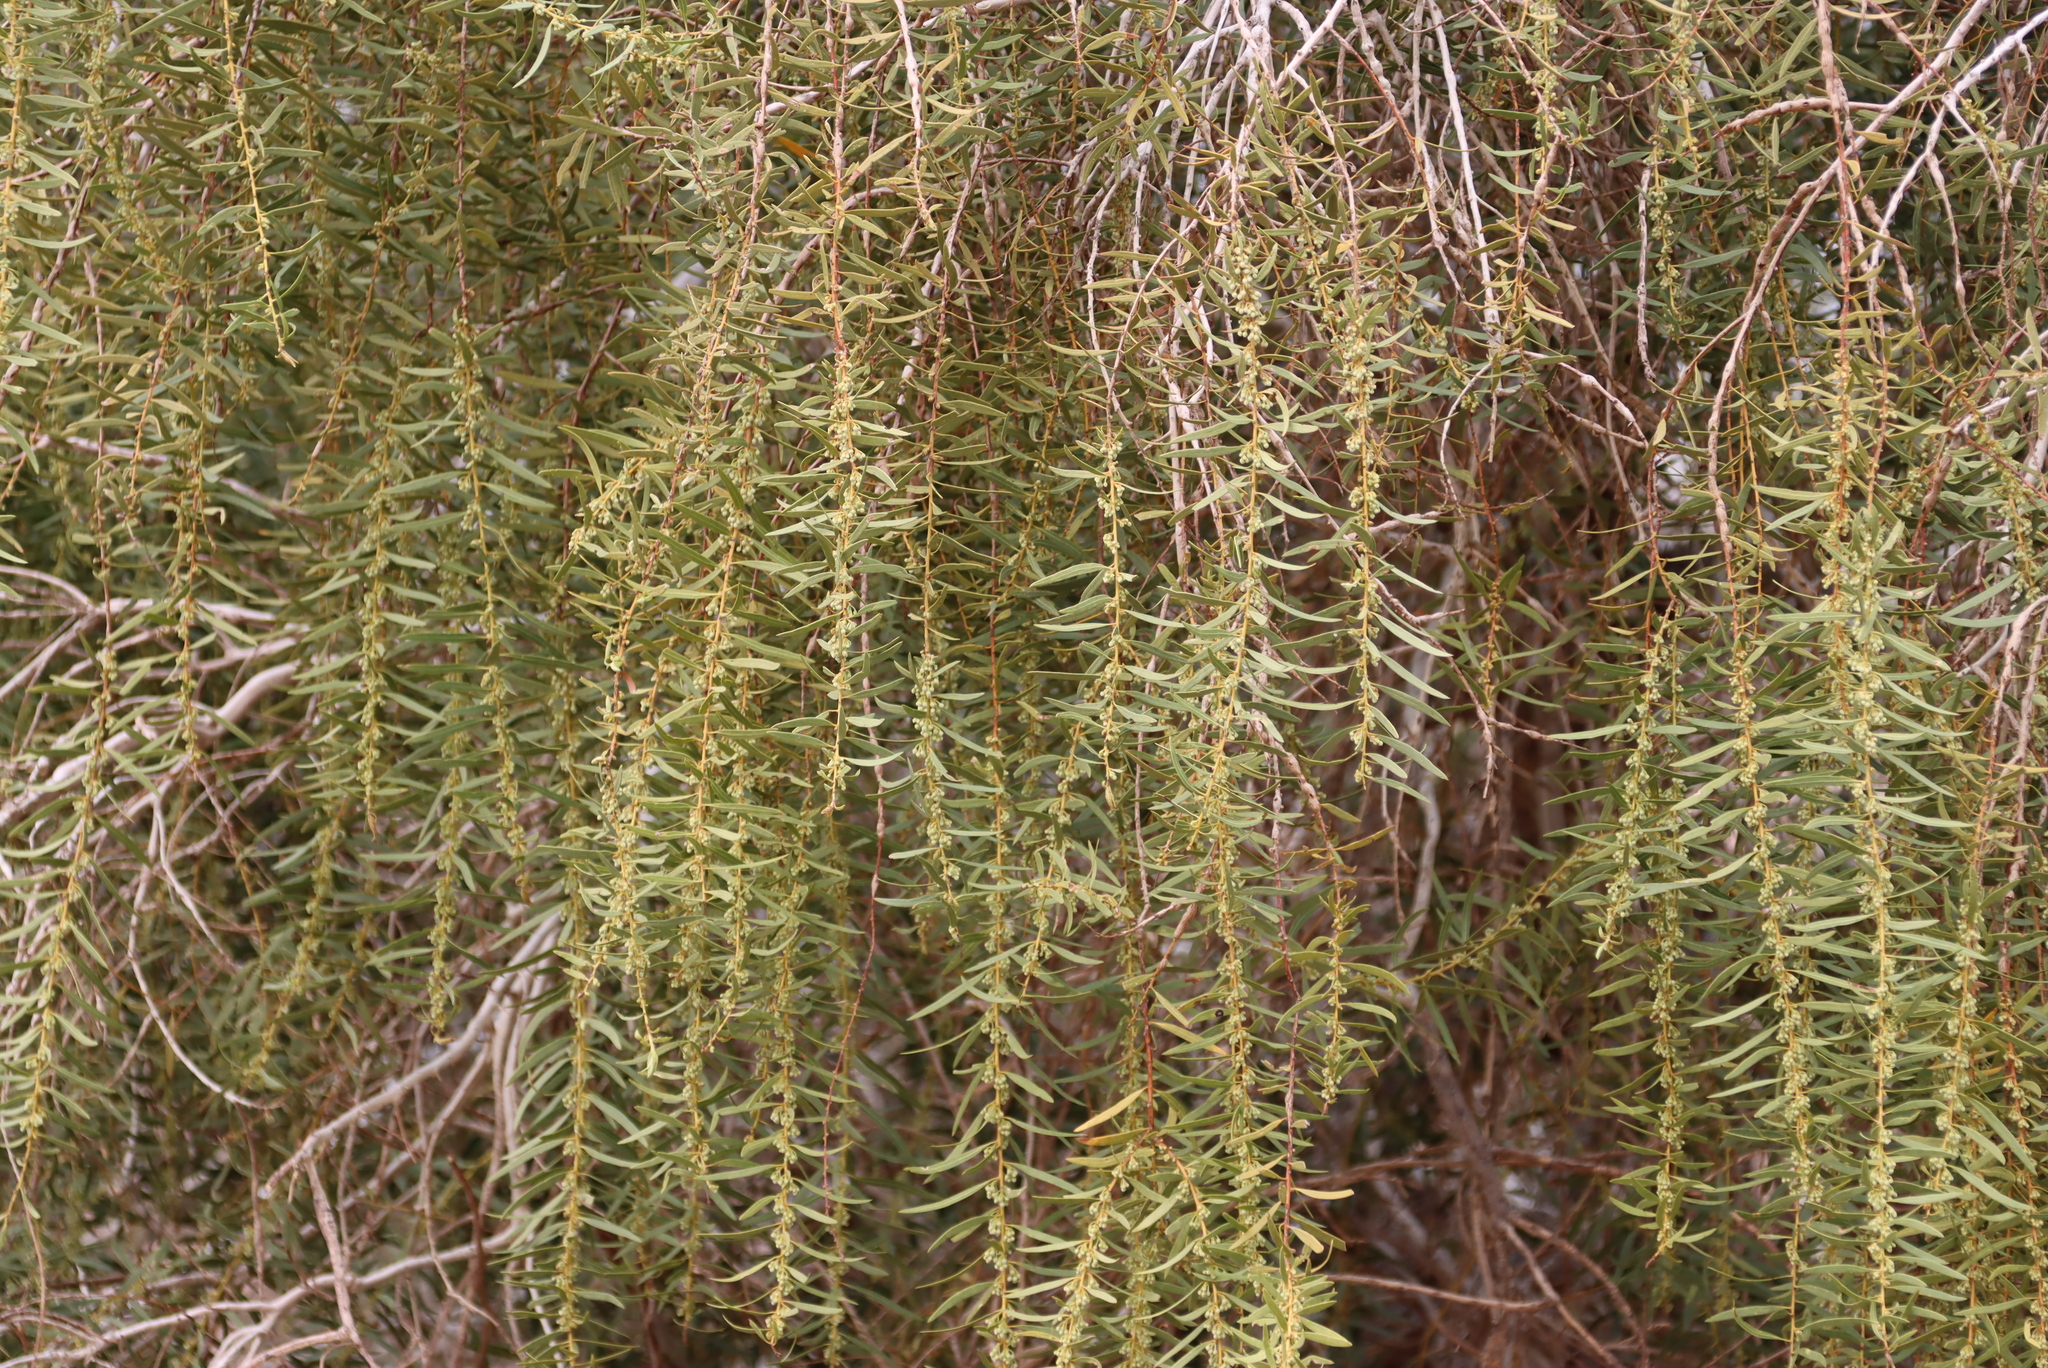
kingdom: Plantae
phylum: Tracheophyta
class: Magnoliopsida
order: Ericales
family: Ebenaceae
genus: Euclea
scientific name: Euclea pseudebenus
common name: Black ebony
